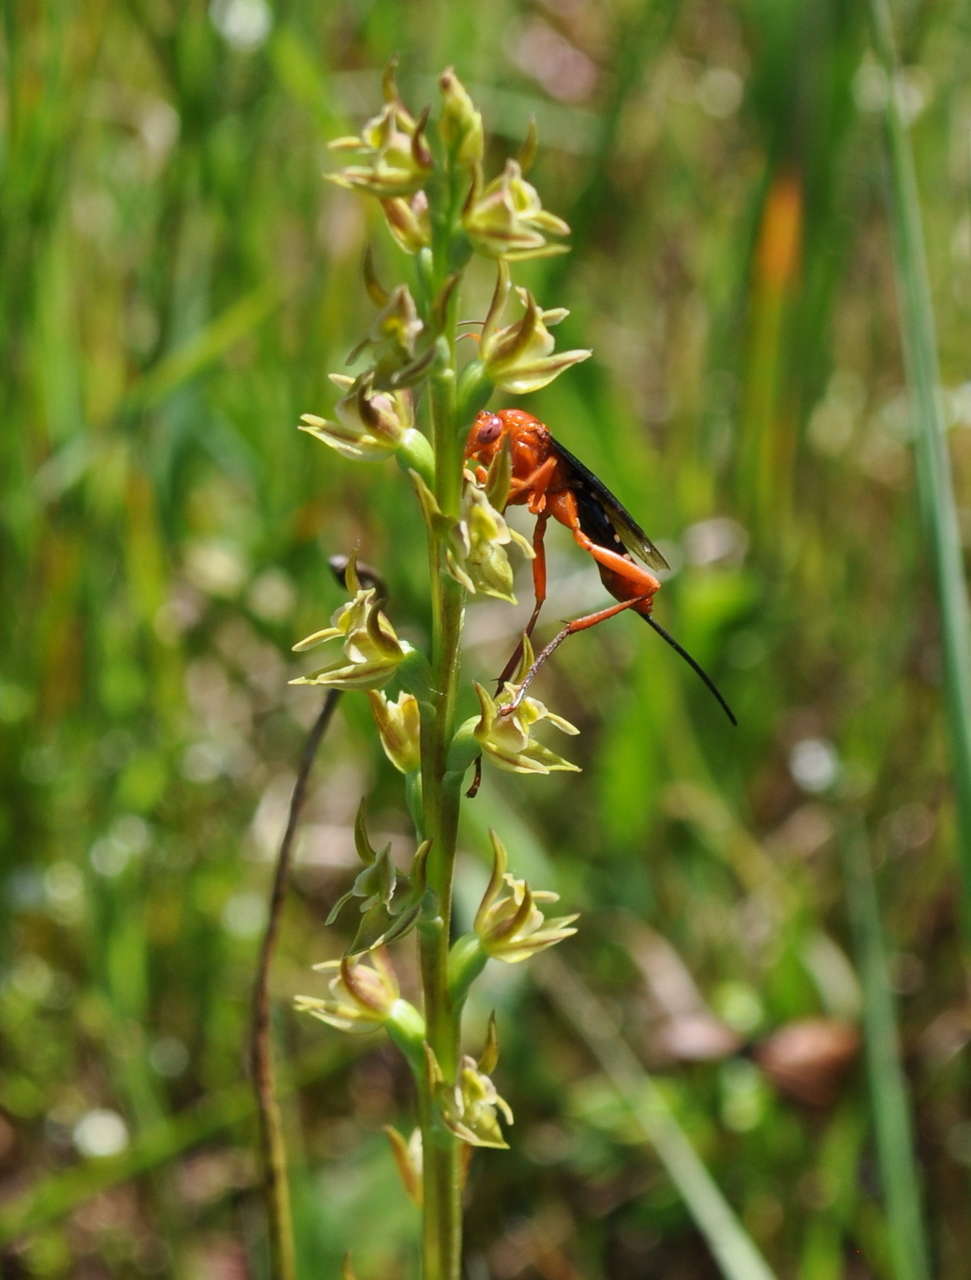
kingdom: Animalia
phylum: Arthropoda
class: Insecta
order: Hymenoptera
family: Ichneumonidae
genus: Lissopimpla
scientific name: Lissopimpla excelsa
